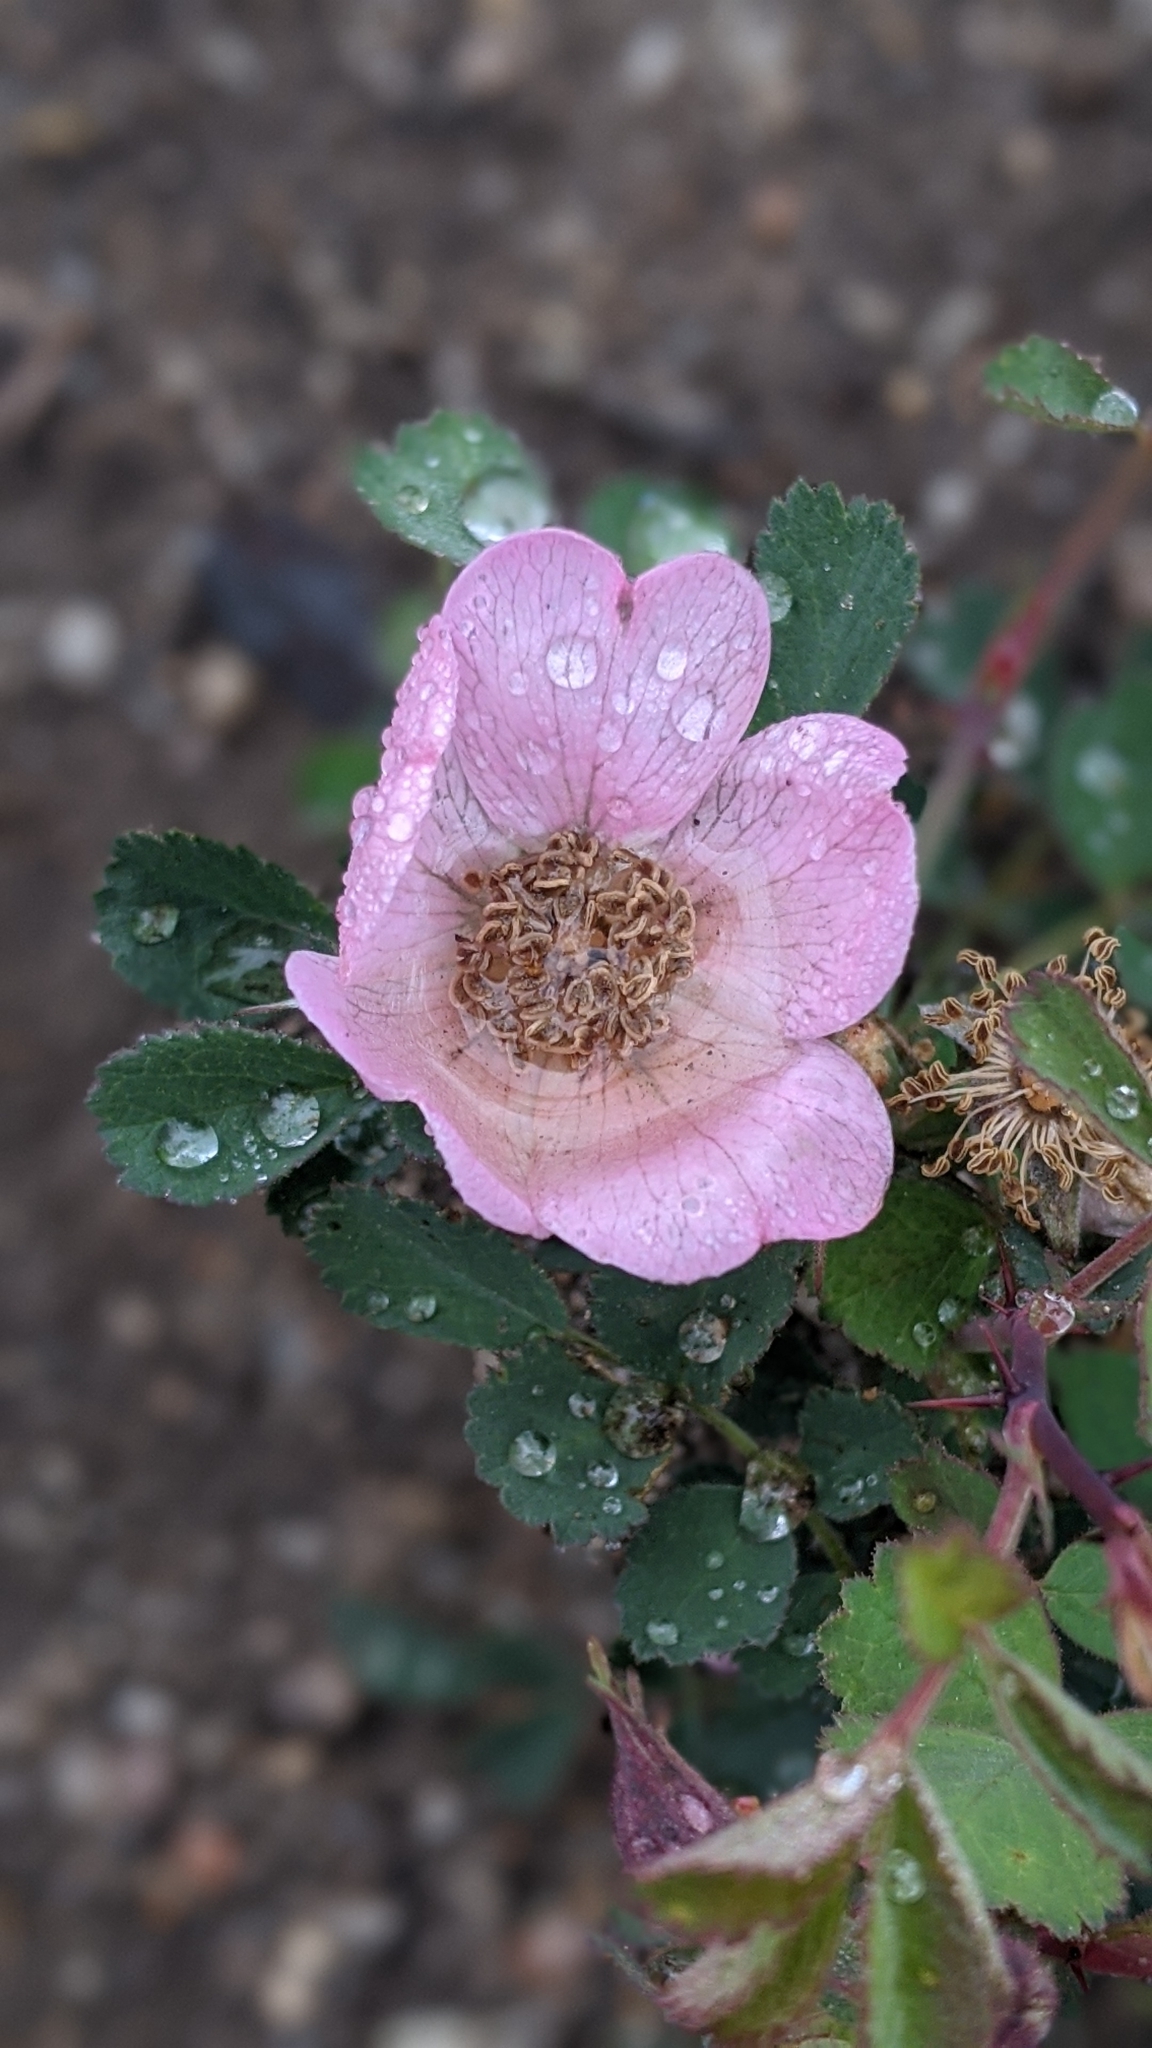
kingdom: Plantae
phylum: Tracheophyta
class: Magnoliopsida
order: Rosales
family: Rosaceae
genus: Rosa
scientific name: Rosa bridgesii
